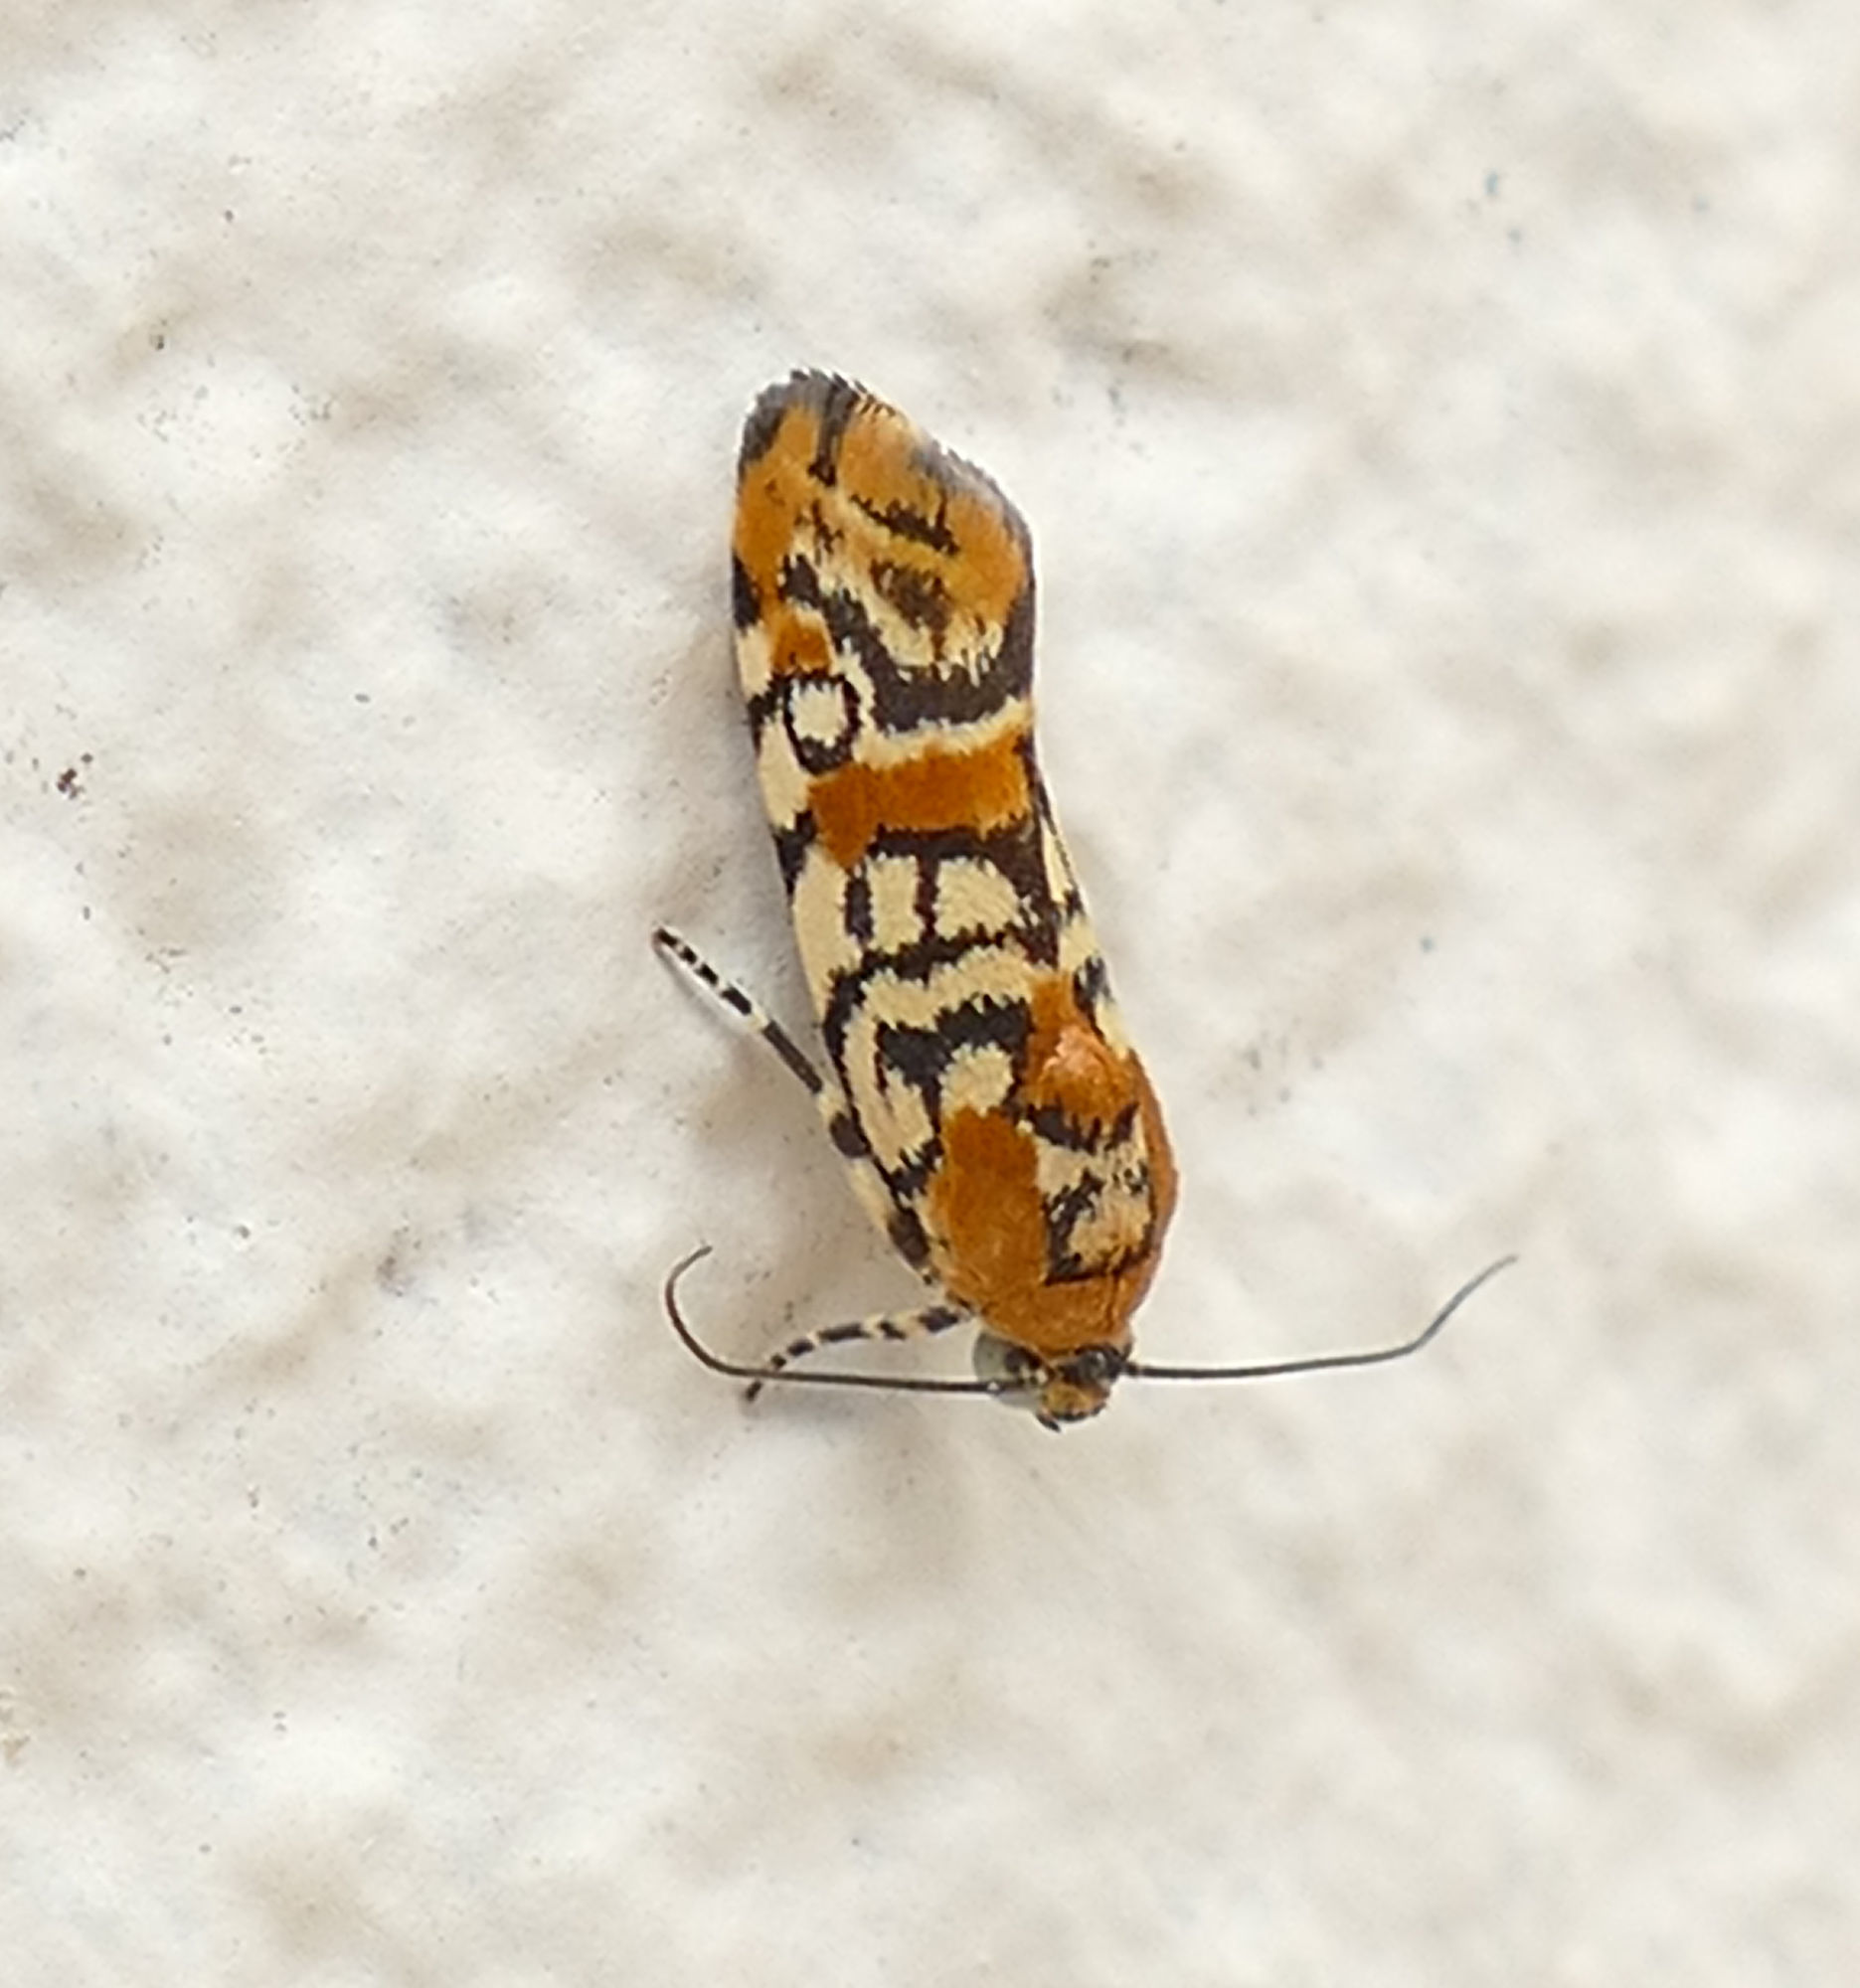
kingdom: Animalia
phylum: Arthropoda
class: Insecta
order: Lepidoptera
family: Noctuidae
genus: Spragueia
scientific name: Spragueia guttata
